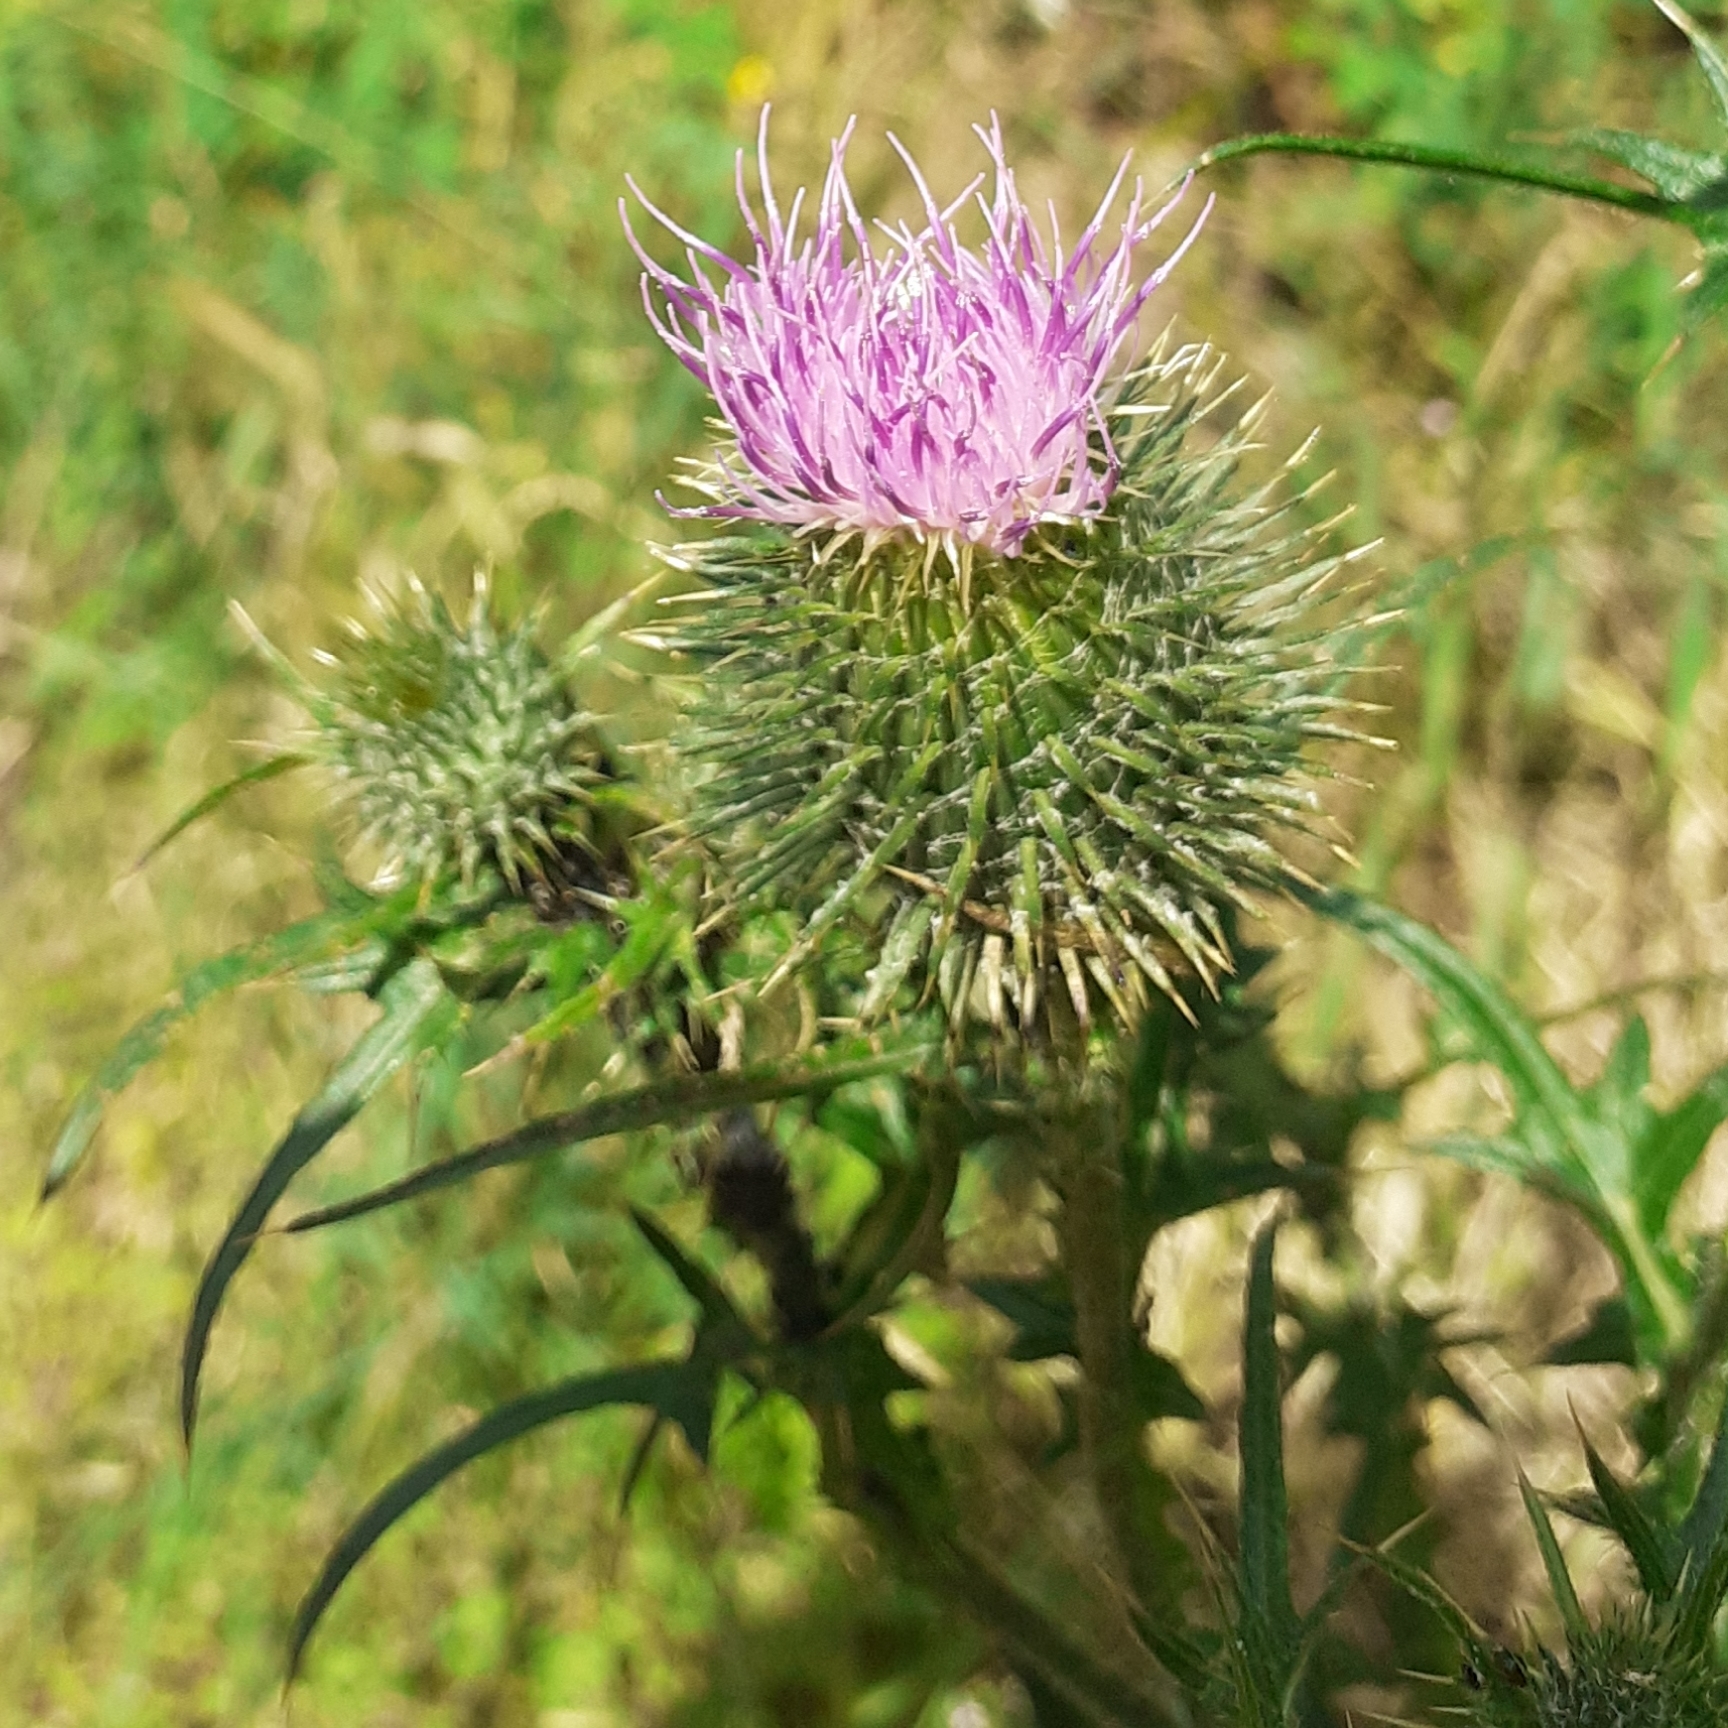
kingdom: Plantae
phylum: Tracheophyta
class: Magnoliopsida
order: Asterales
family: Asteraceae
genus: Cirsium
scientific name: Cirsium vulgare
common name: Bull thistle
